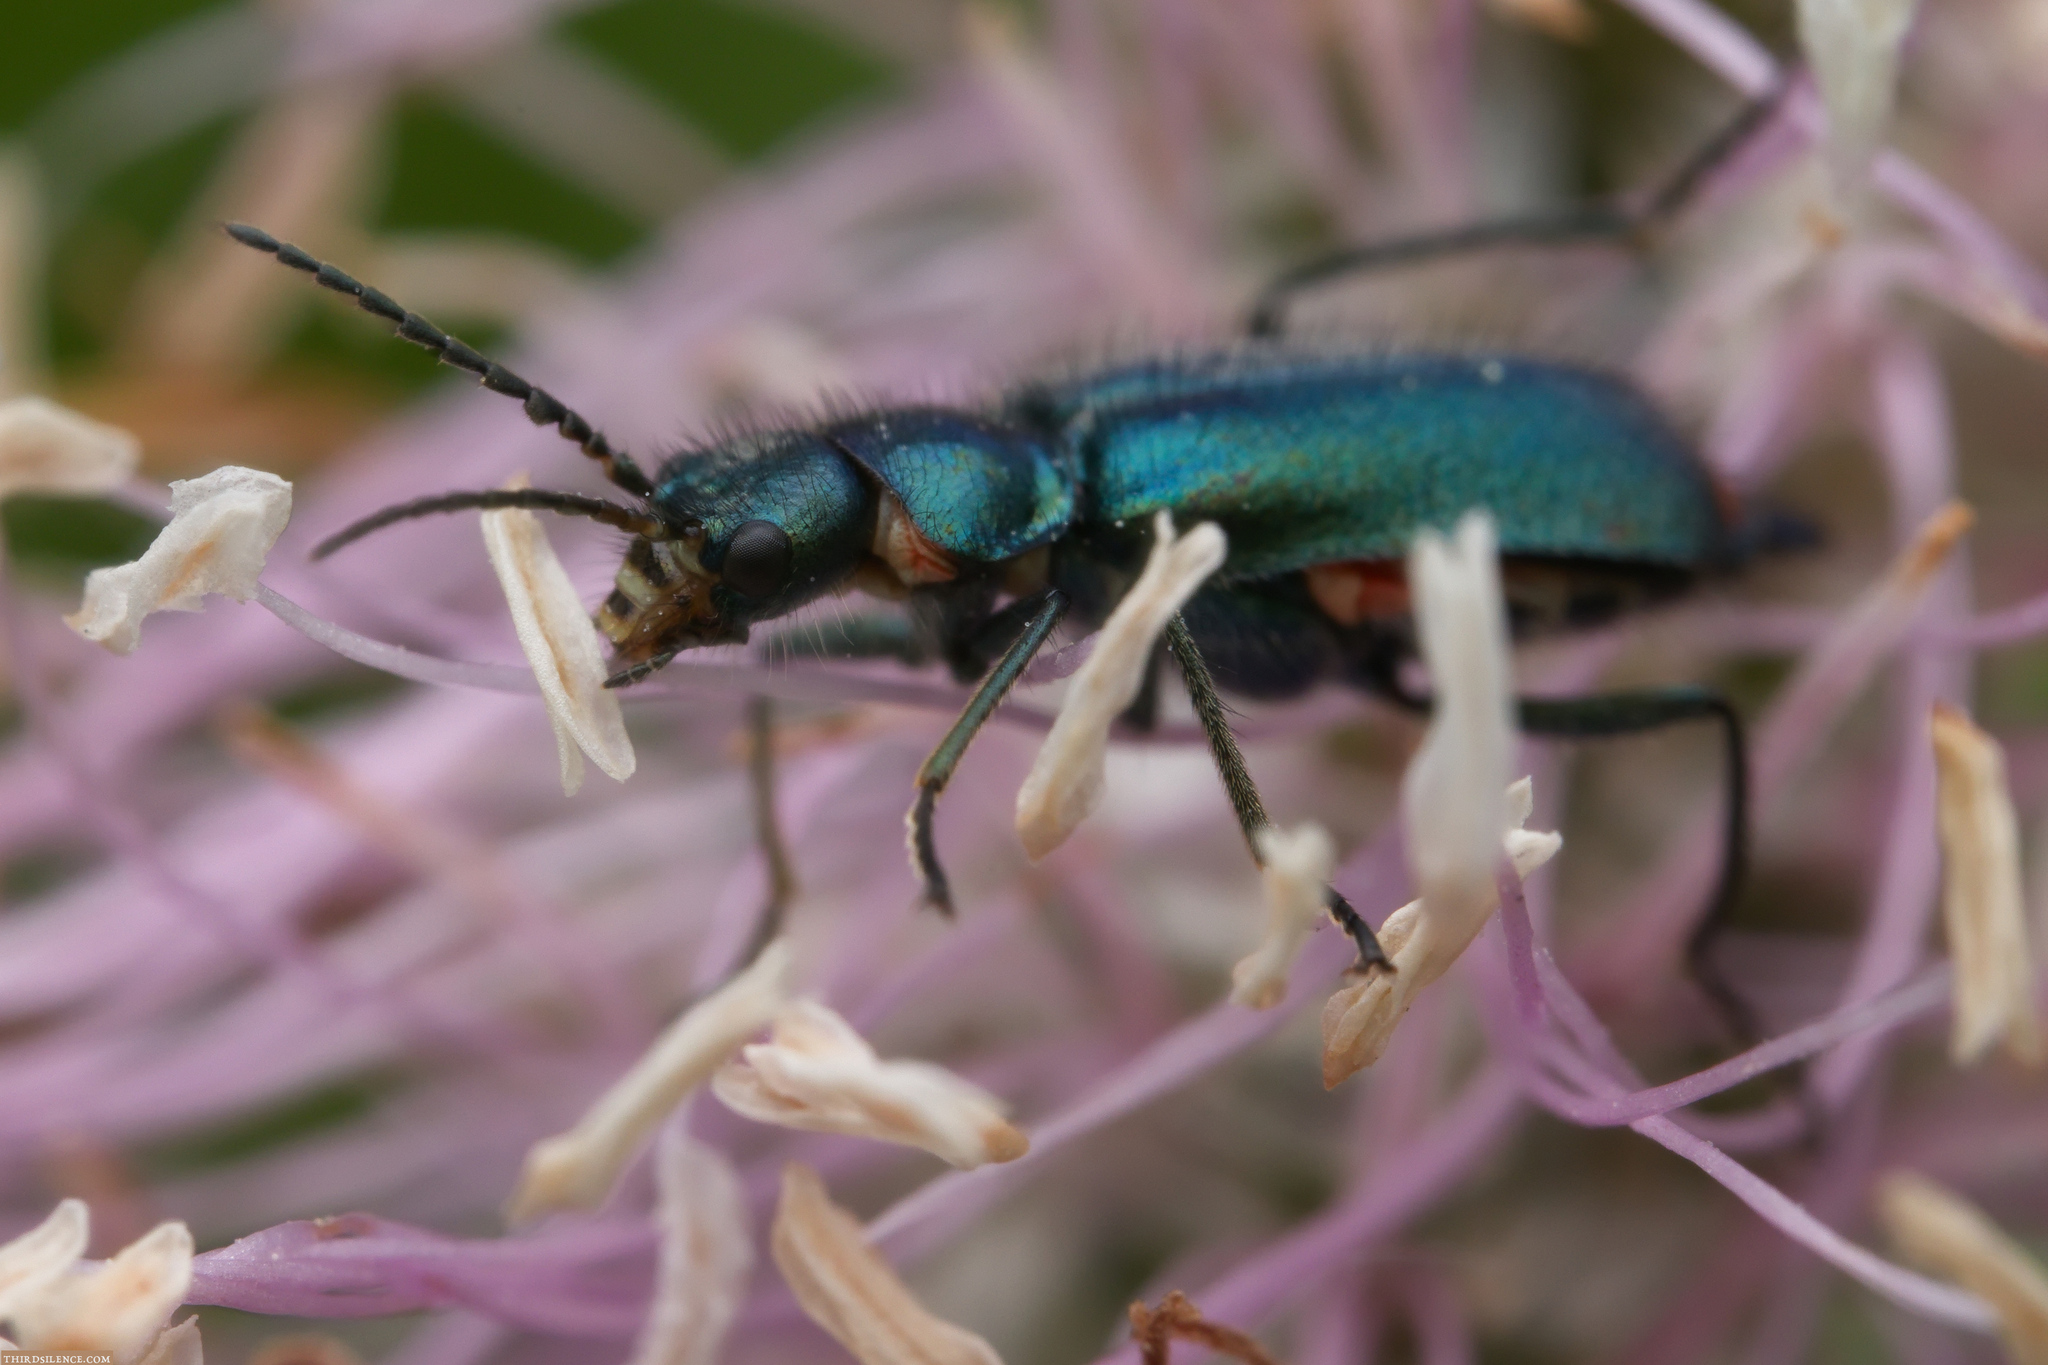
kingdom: Animalia
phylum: Arthropoda
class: Insecta
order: Coleoptera
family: Melyridae
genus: Malachius
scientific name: Malachius bipustulatus
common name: Malachite beetle
